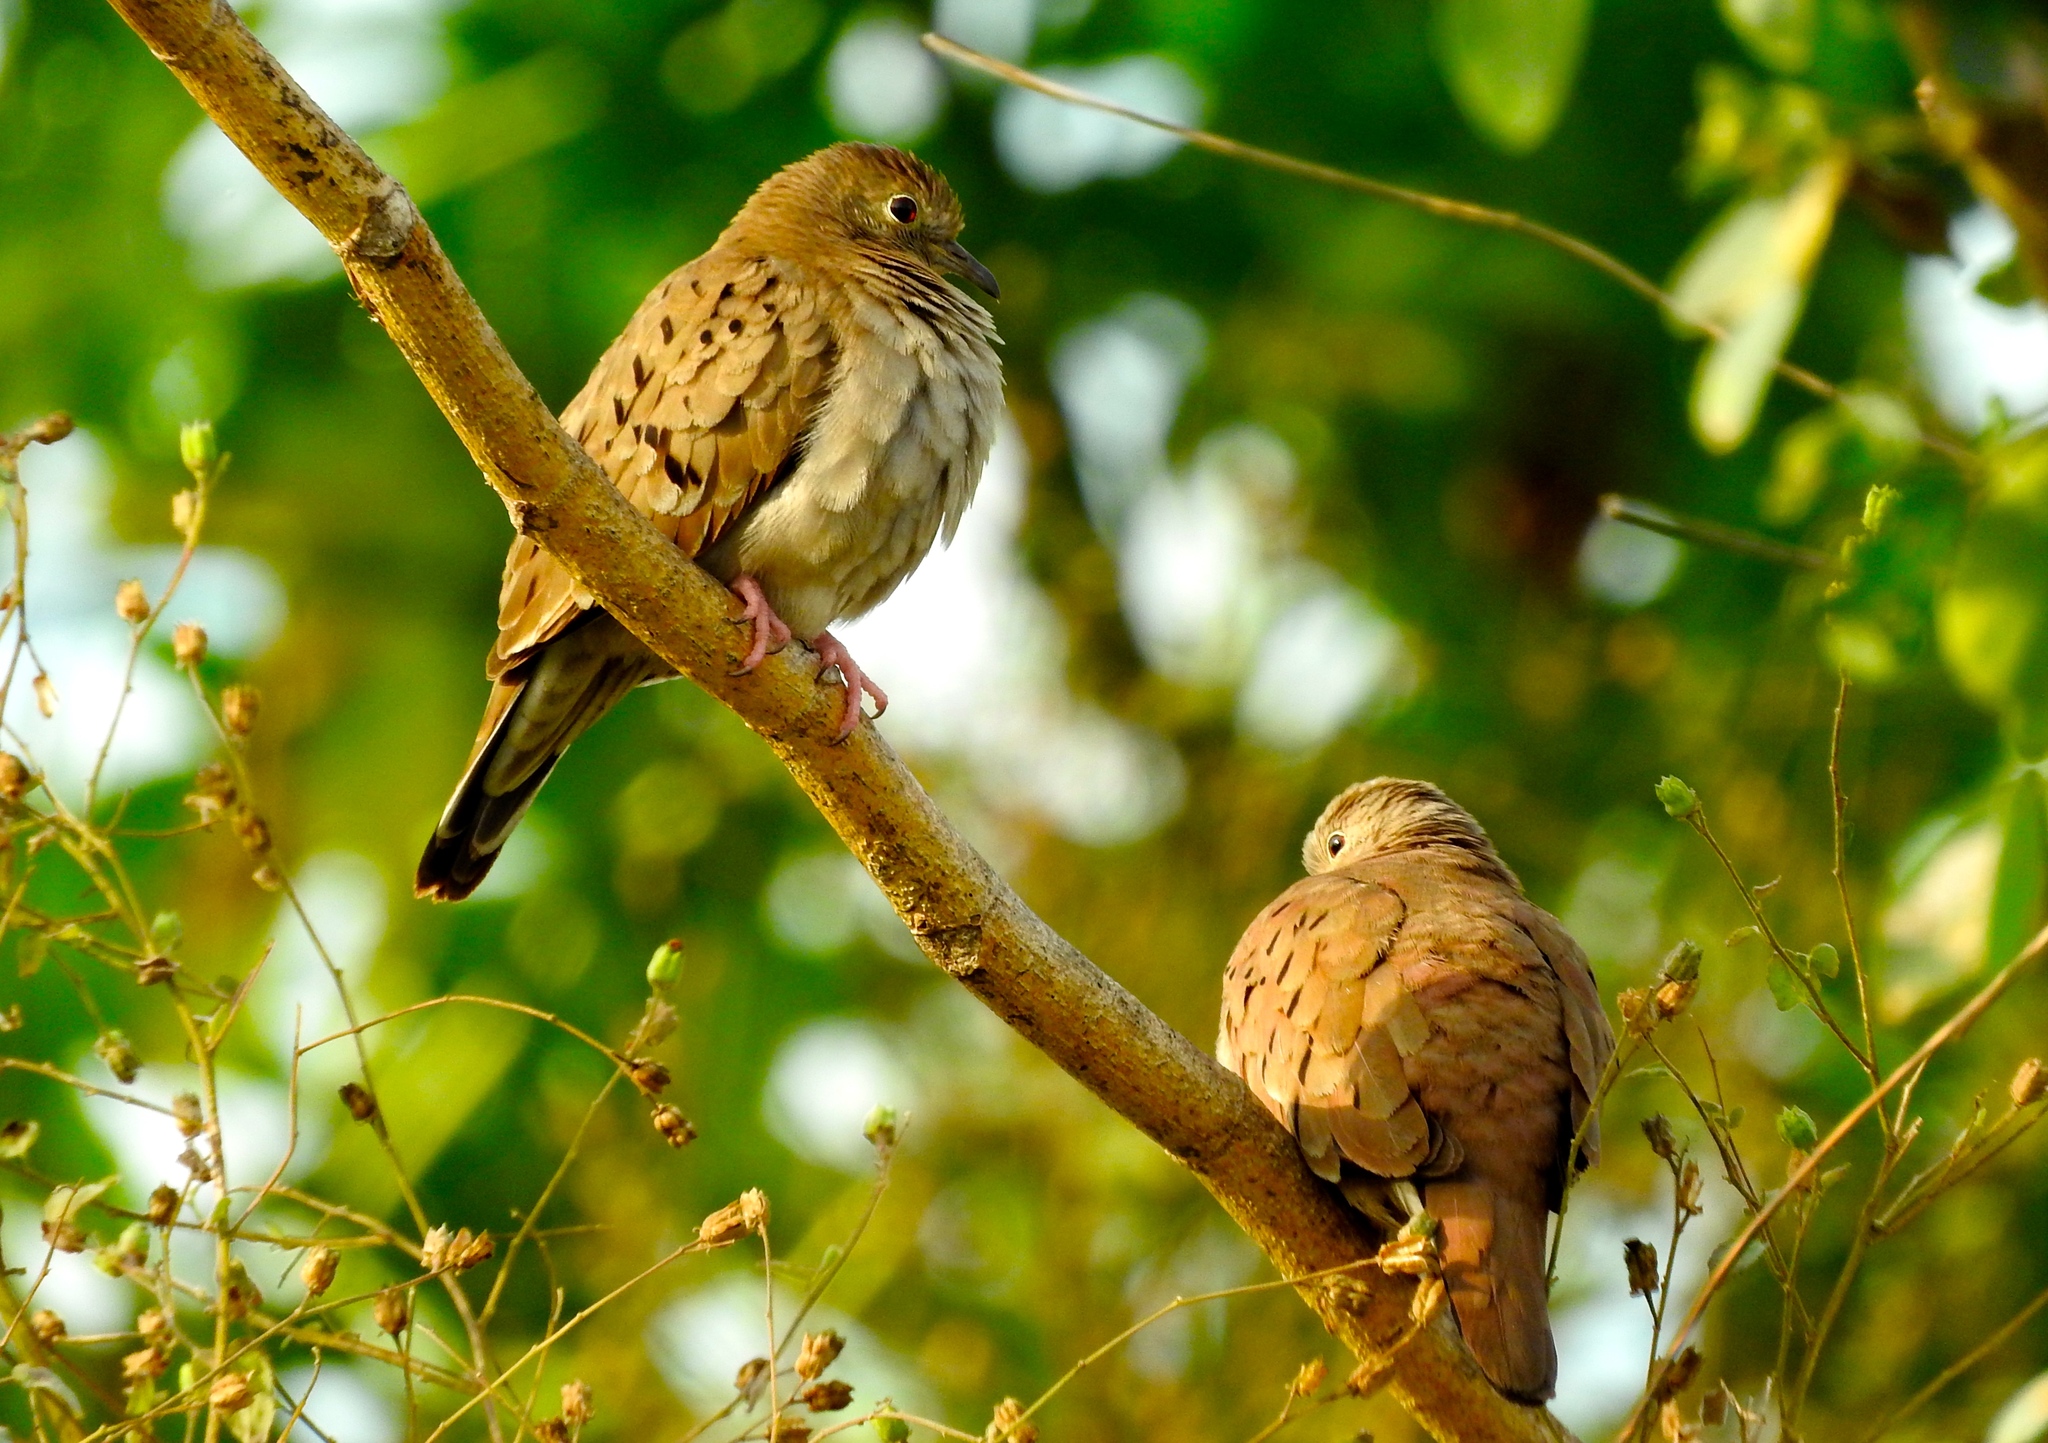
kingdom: Animalia
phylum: Chordata
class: Aves
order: Columbiformes
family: Columbidae
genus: Columbina
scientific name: Columbina talpacoti
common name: Ruddy ground dove
